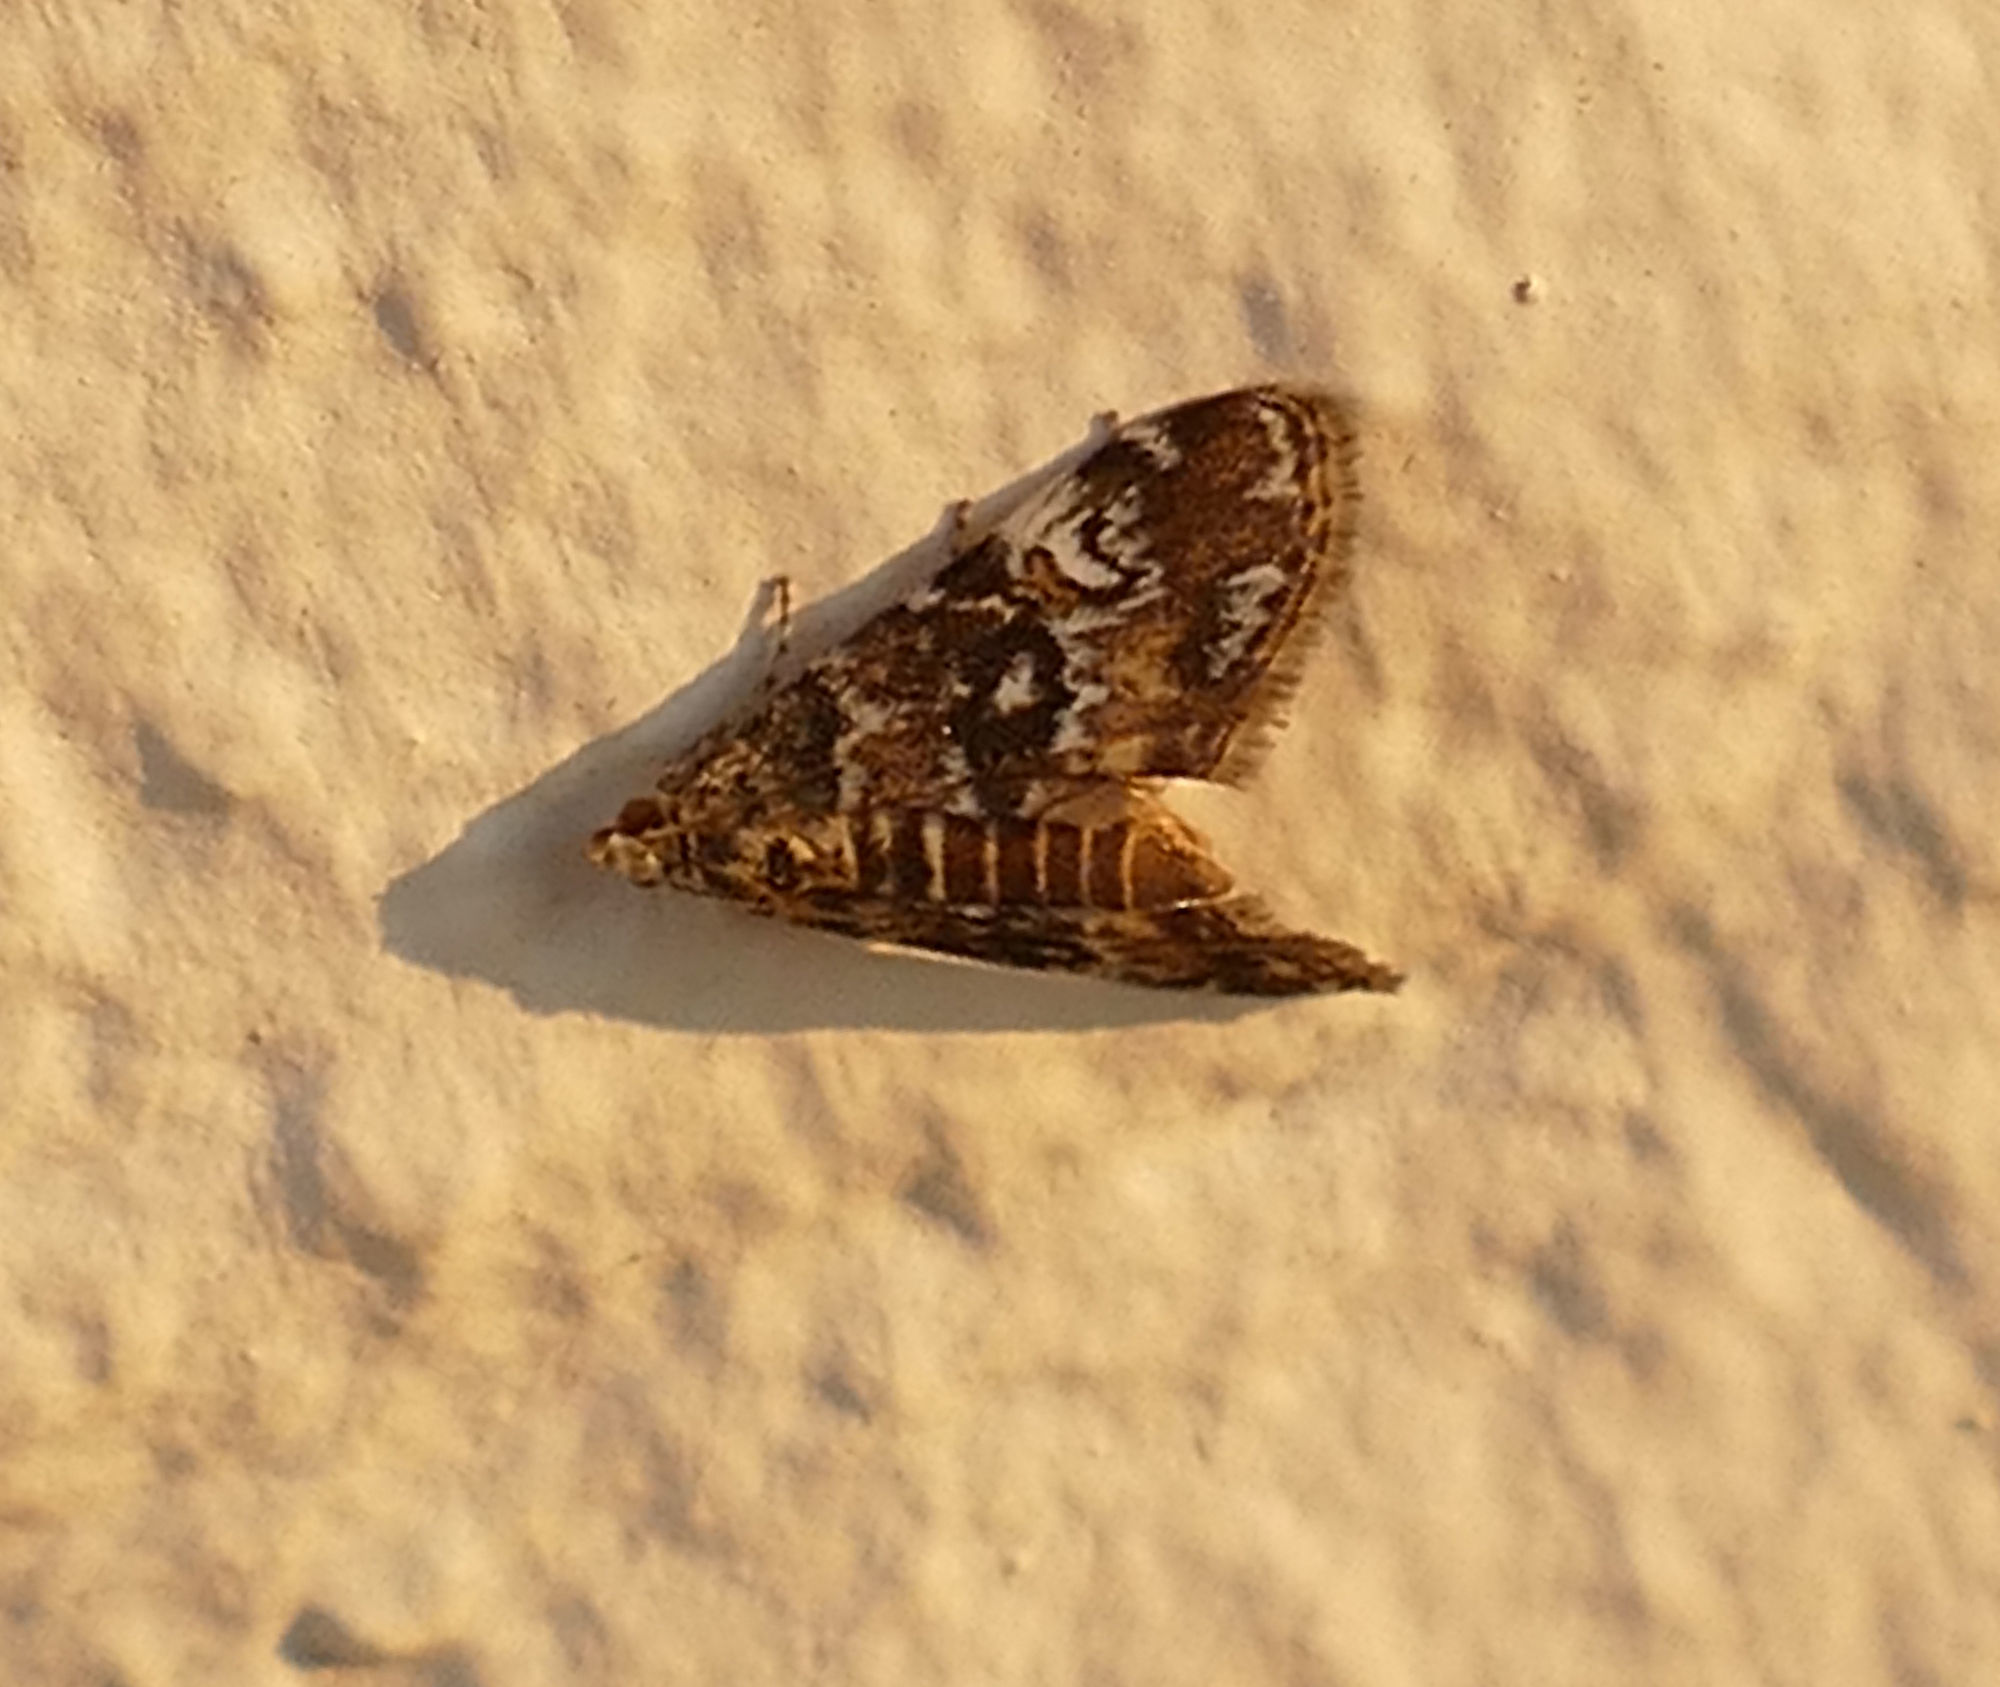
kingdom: Animalia
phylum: Arthropoda
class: Insecta
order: Lepidoptera
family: Crambidae
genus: Elophila
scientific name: Elophila obliteralis
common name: Waterlily leafcutter moth
